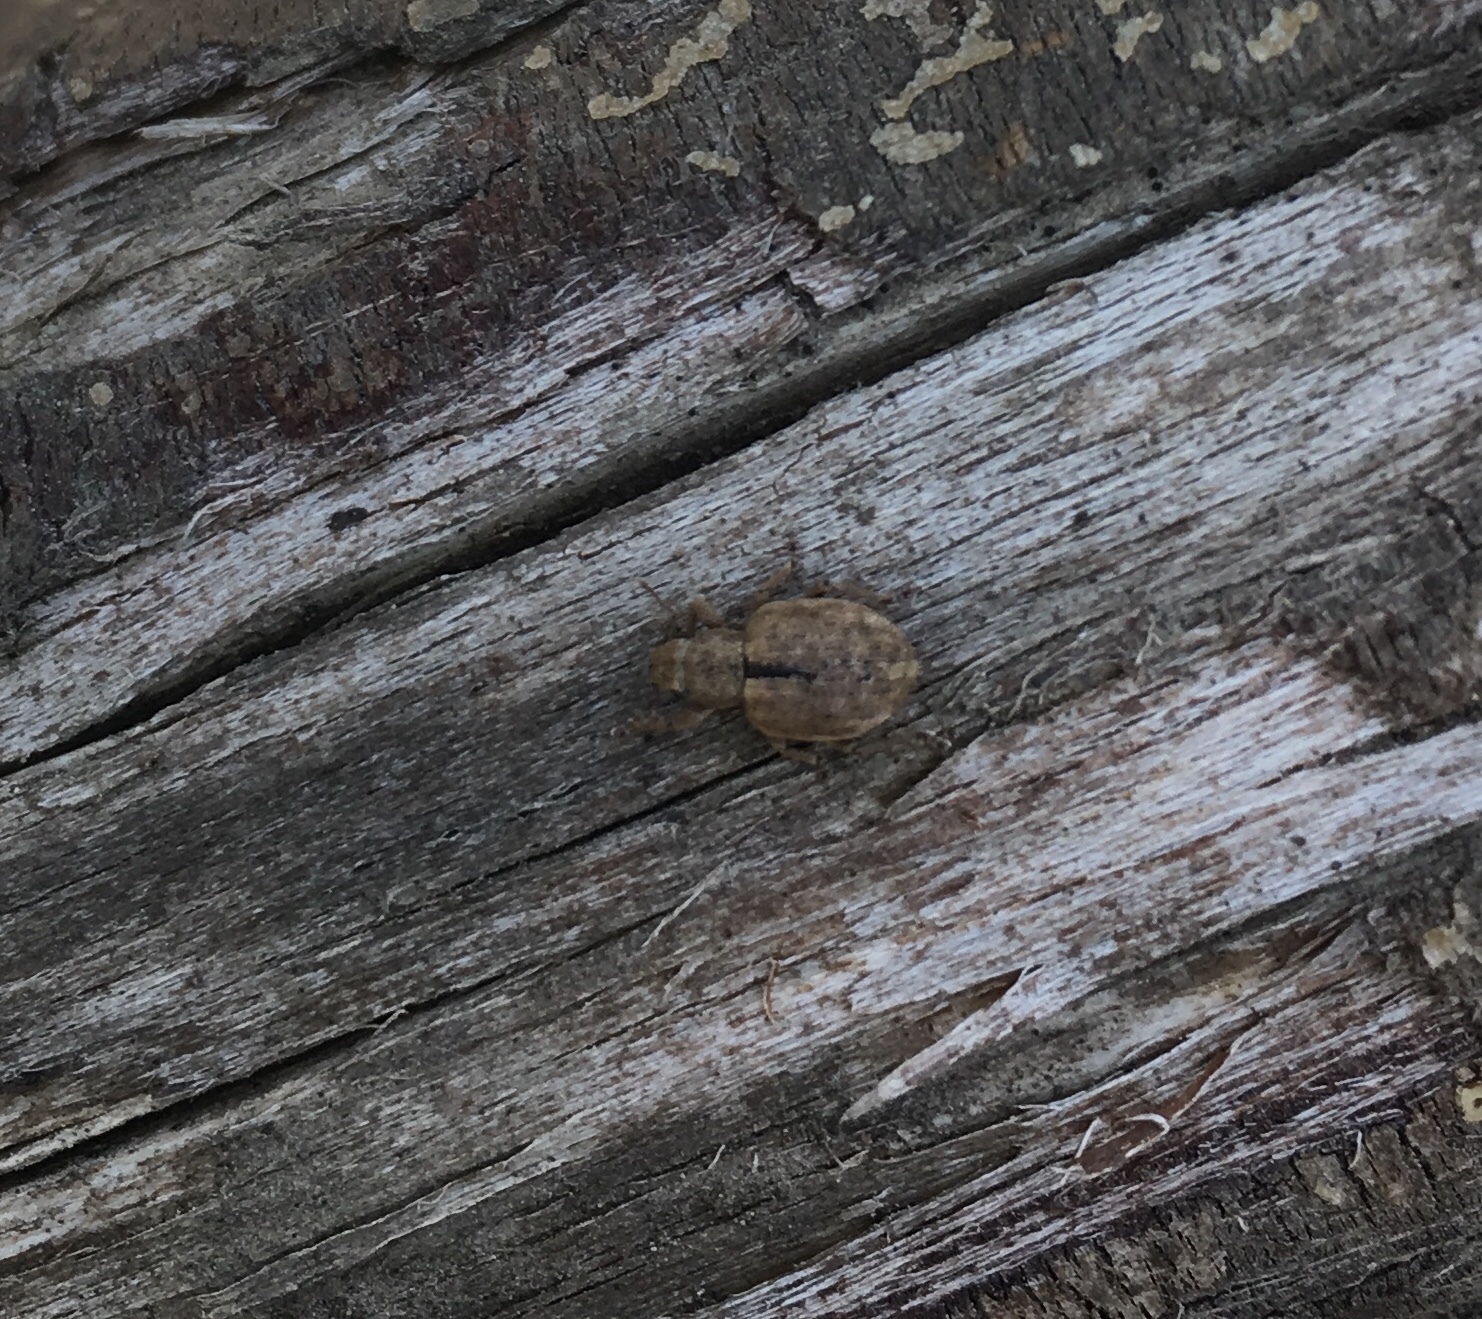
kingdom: Animalia
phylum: Arthropoda
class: Insecta
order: Coleoptera
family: Curculionidae
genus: Strophosoma
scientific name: Strophosoma melanogrammum
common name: Weevil
